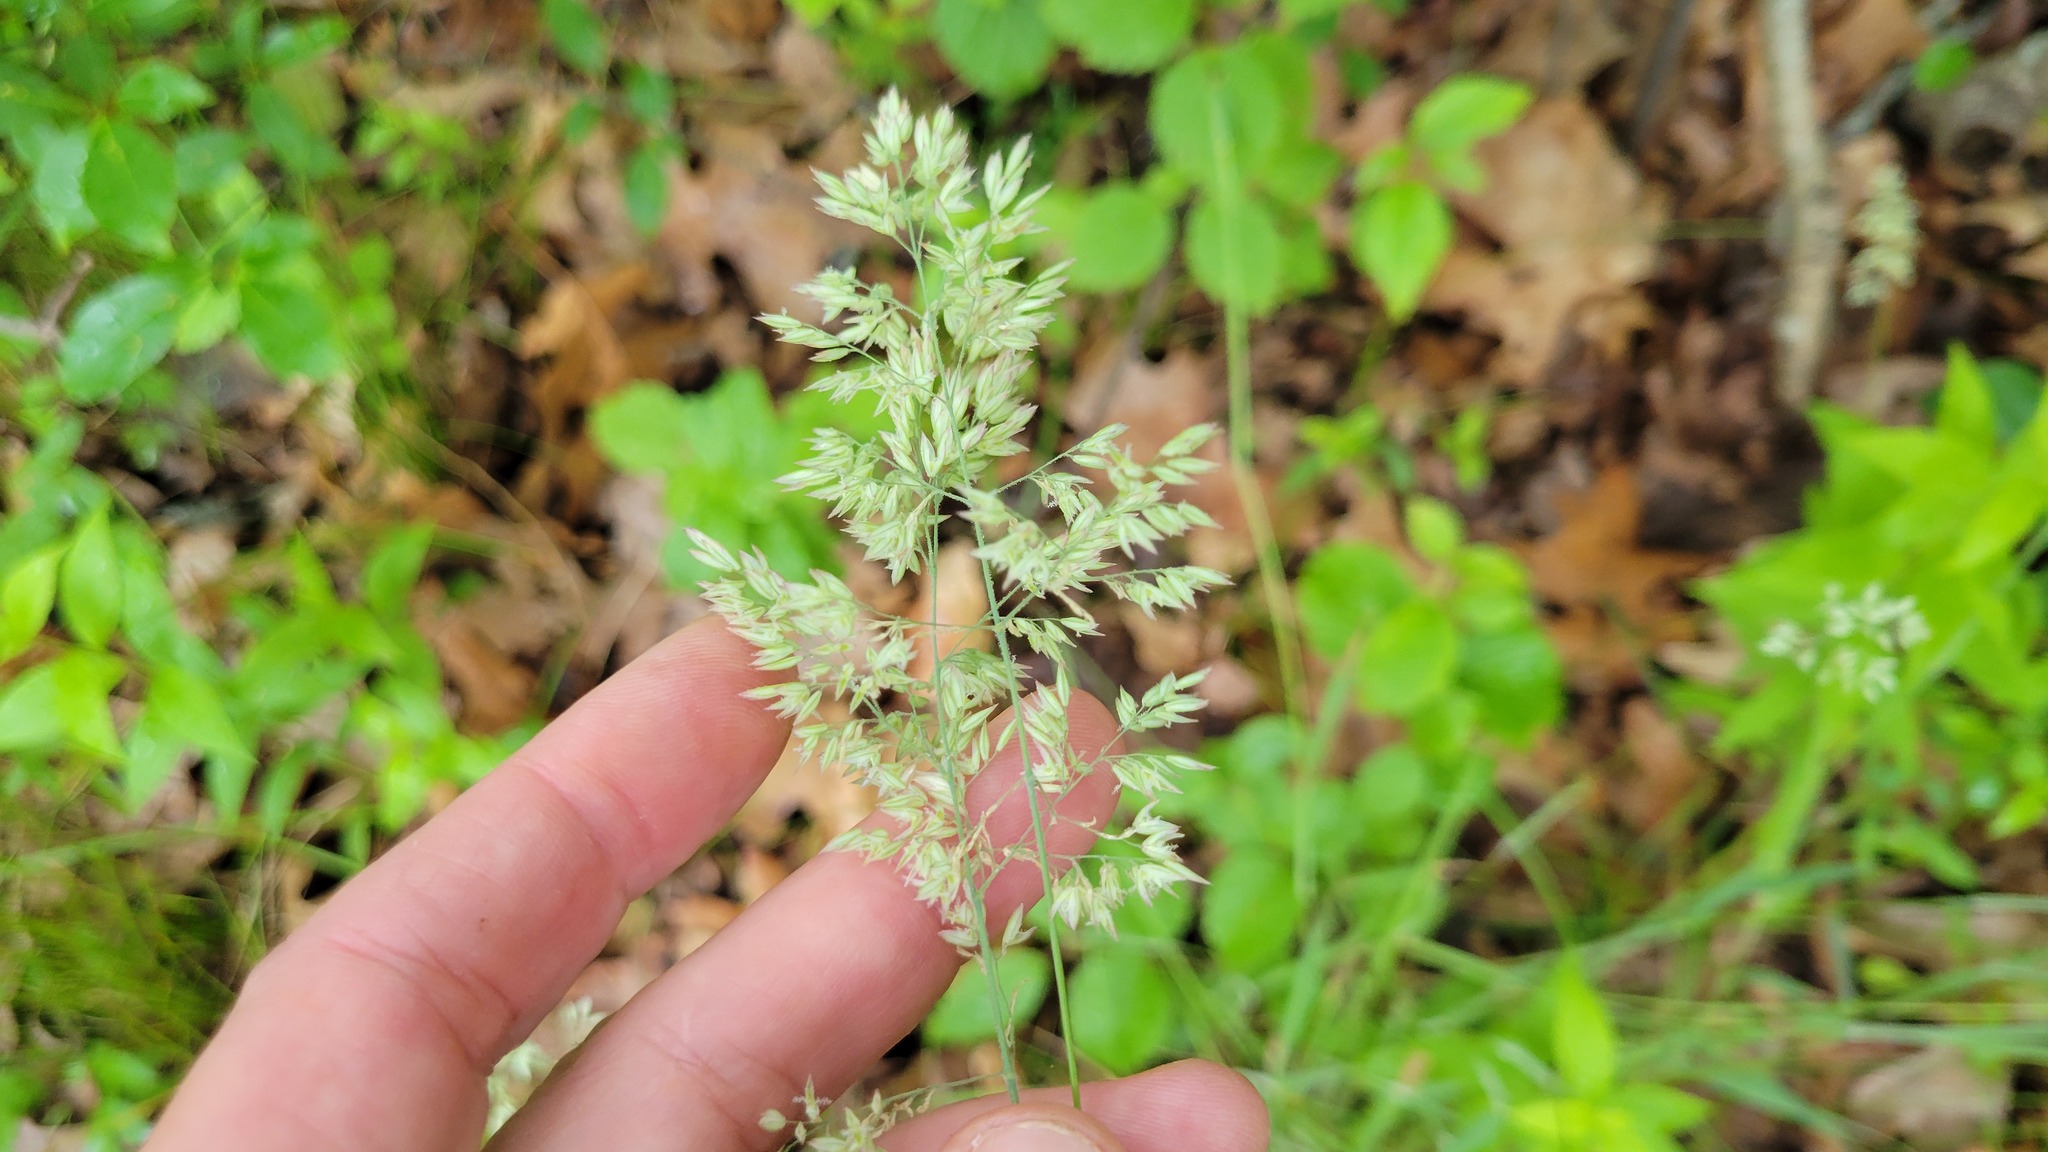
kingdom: Plantae
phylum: Tracheophyta
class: Liliopsida
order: Poales
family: Poaceae
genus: Holcus
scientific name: Holcus lanatus
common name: Yorkshire-fog
